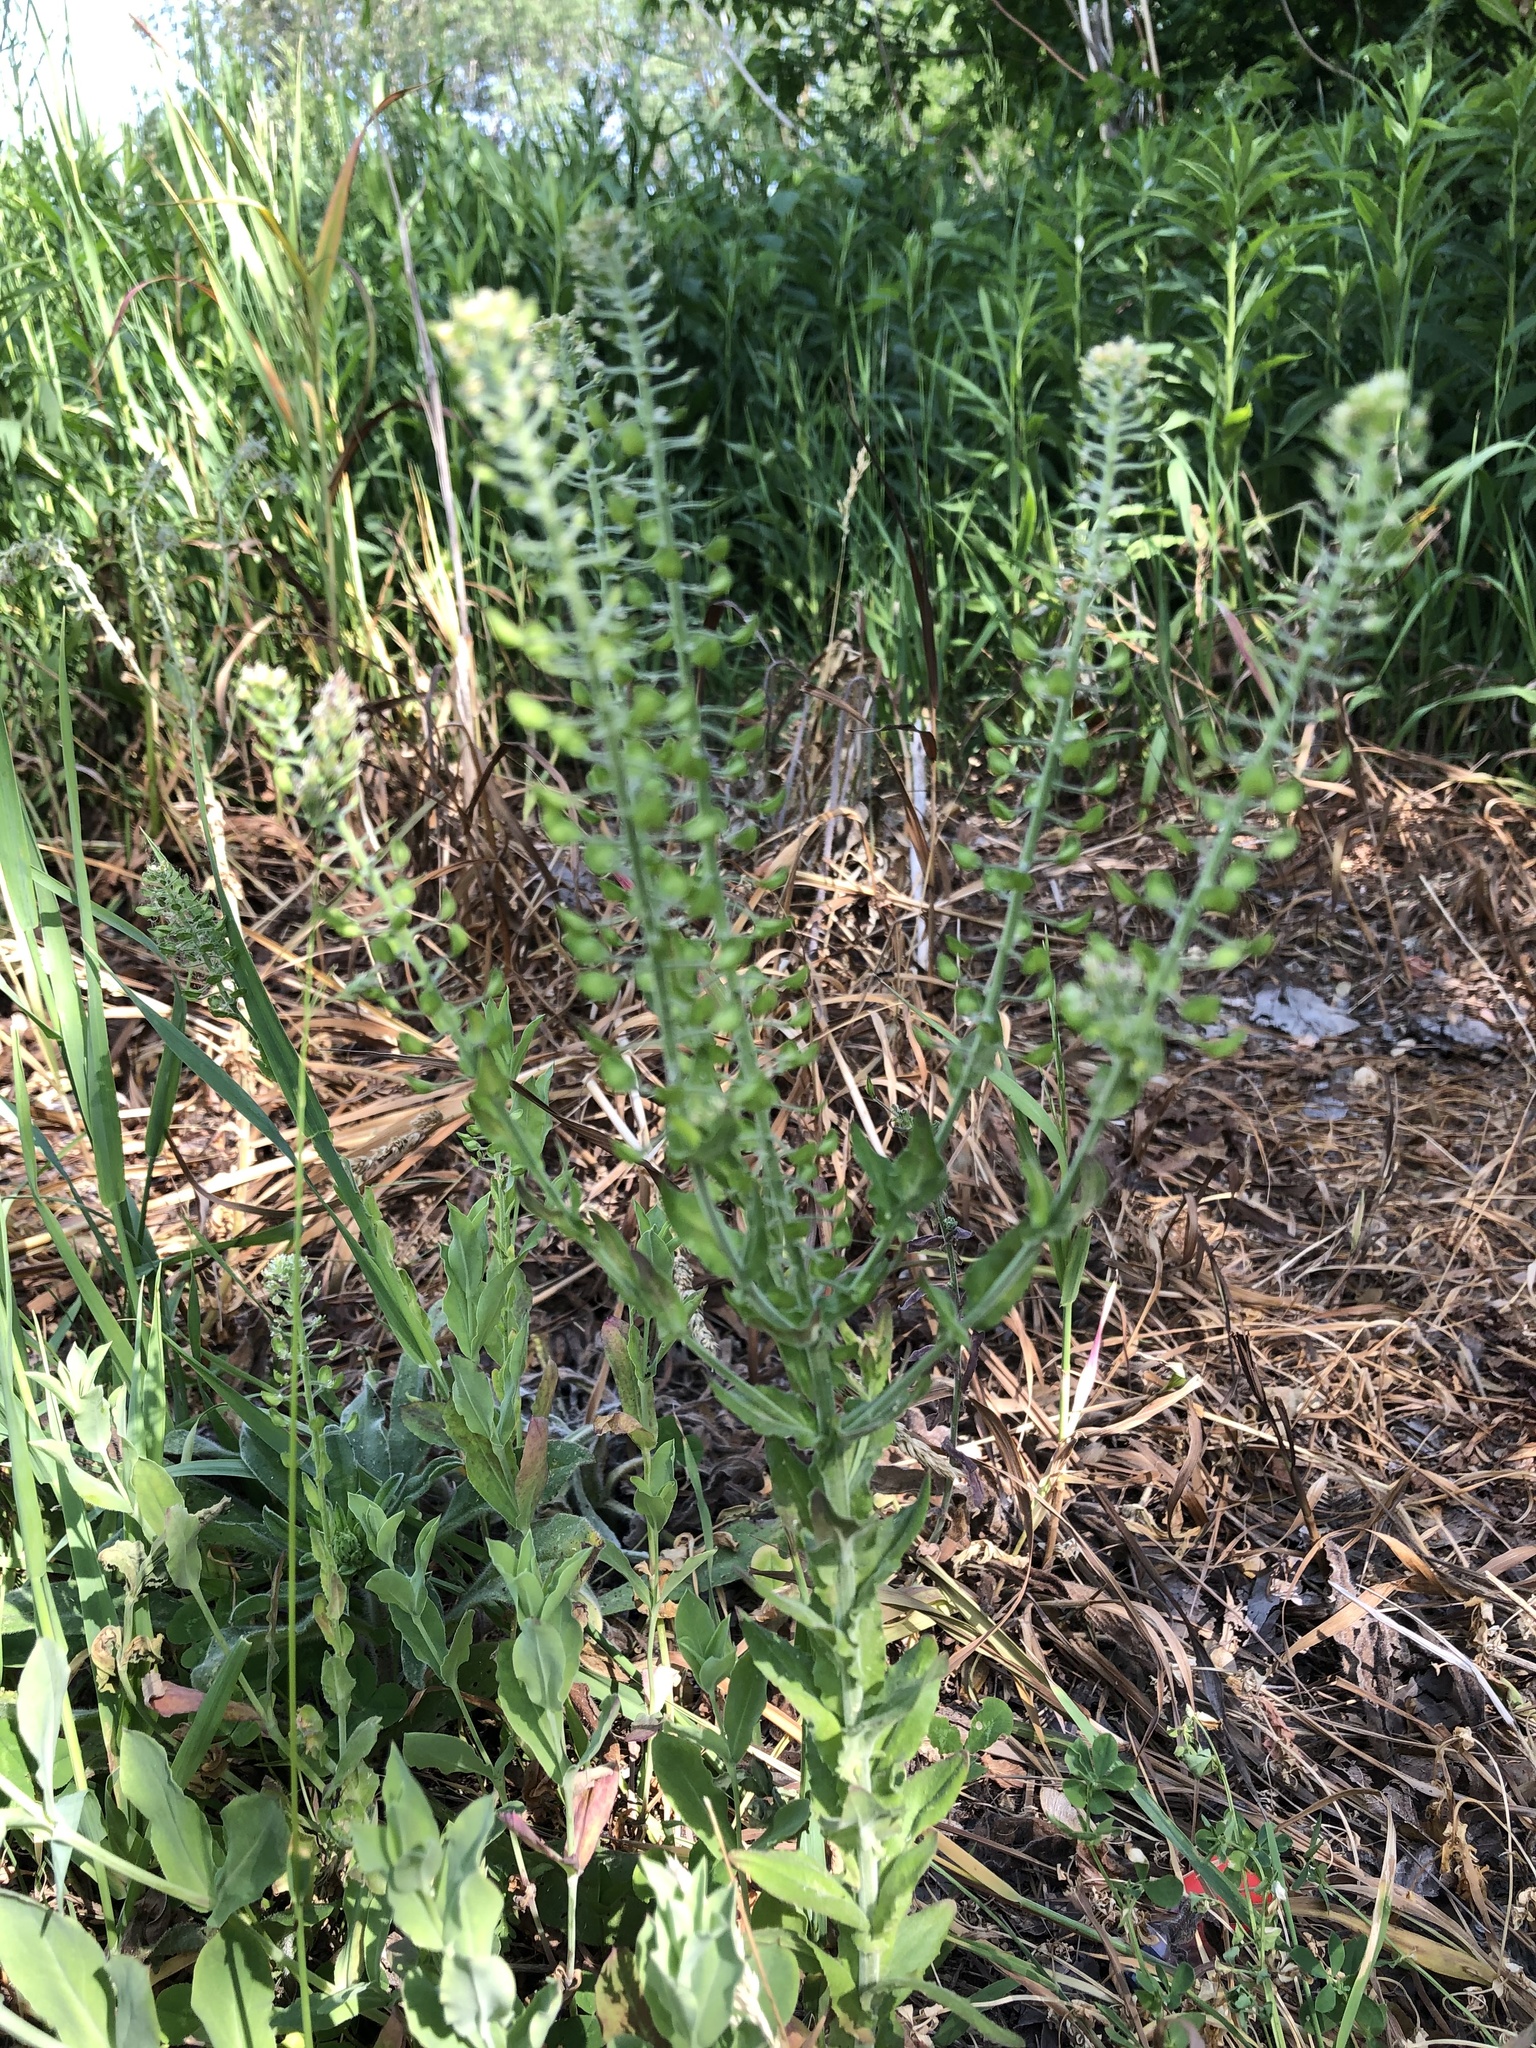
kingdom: Plantae
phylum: Tracheophyta
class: Magnoliopsida
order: Brassicales
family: Brassicaceae
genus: Lepidium
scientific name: Lepidium campestre
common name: Field pepperwort
